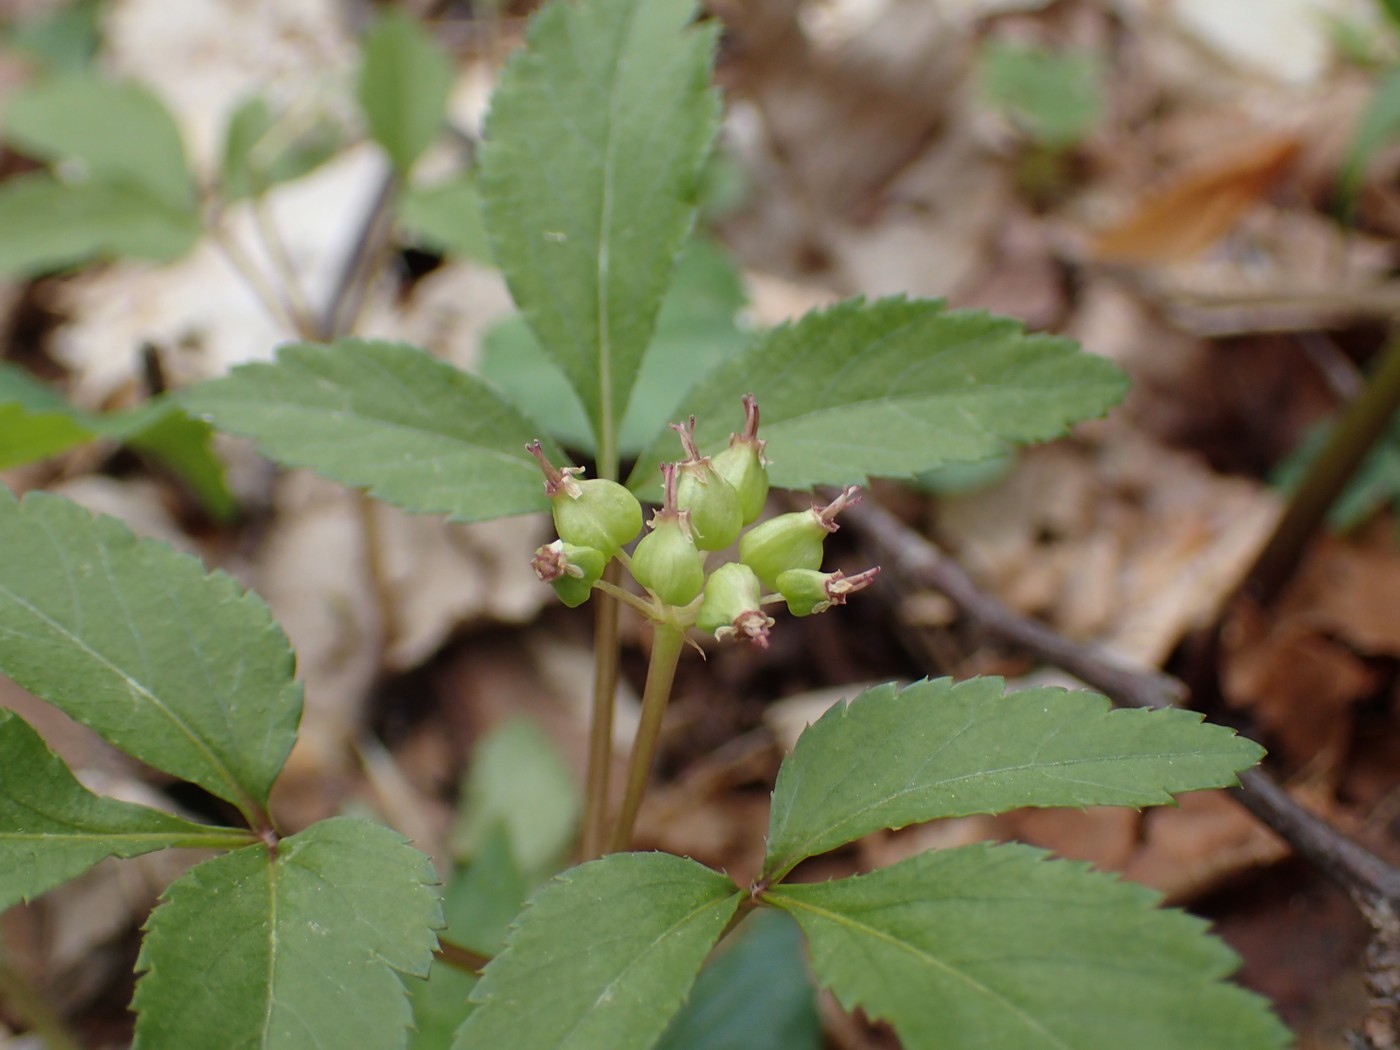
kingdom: Plantae
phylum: Tracheophyta
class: Magnoliopsida
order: Apiales
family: Araliaceae
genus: Panax
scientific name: Panax trifolius
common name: Dwarf ginseng
